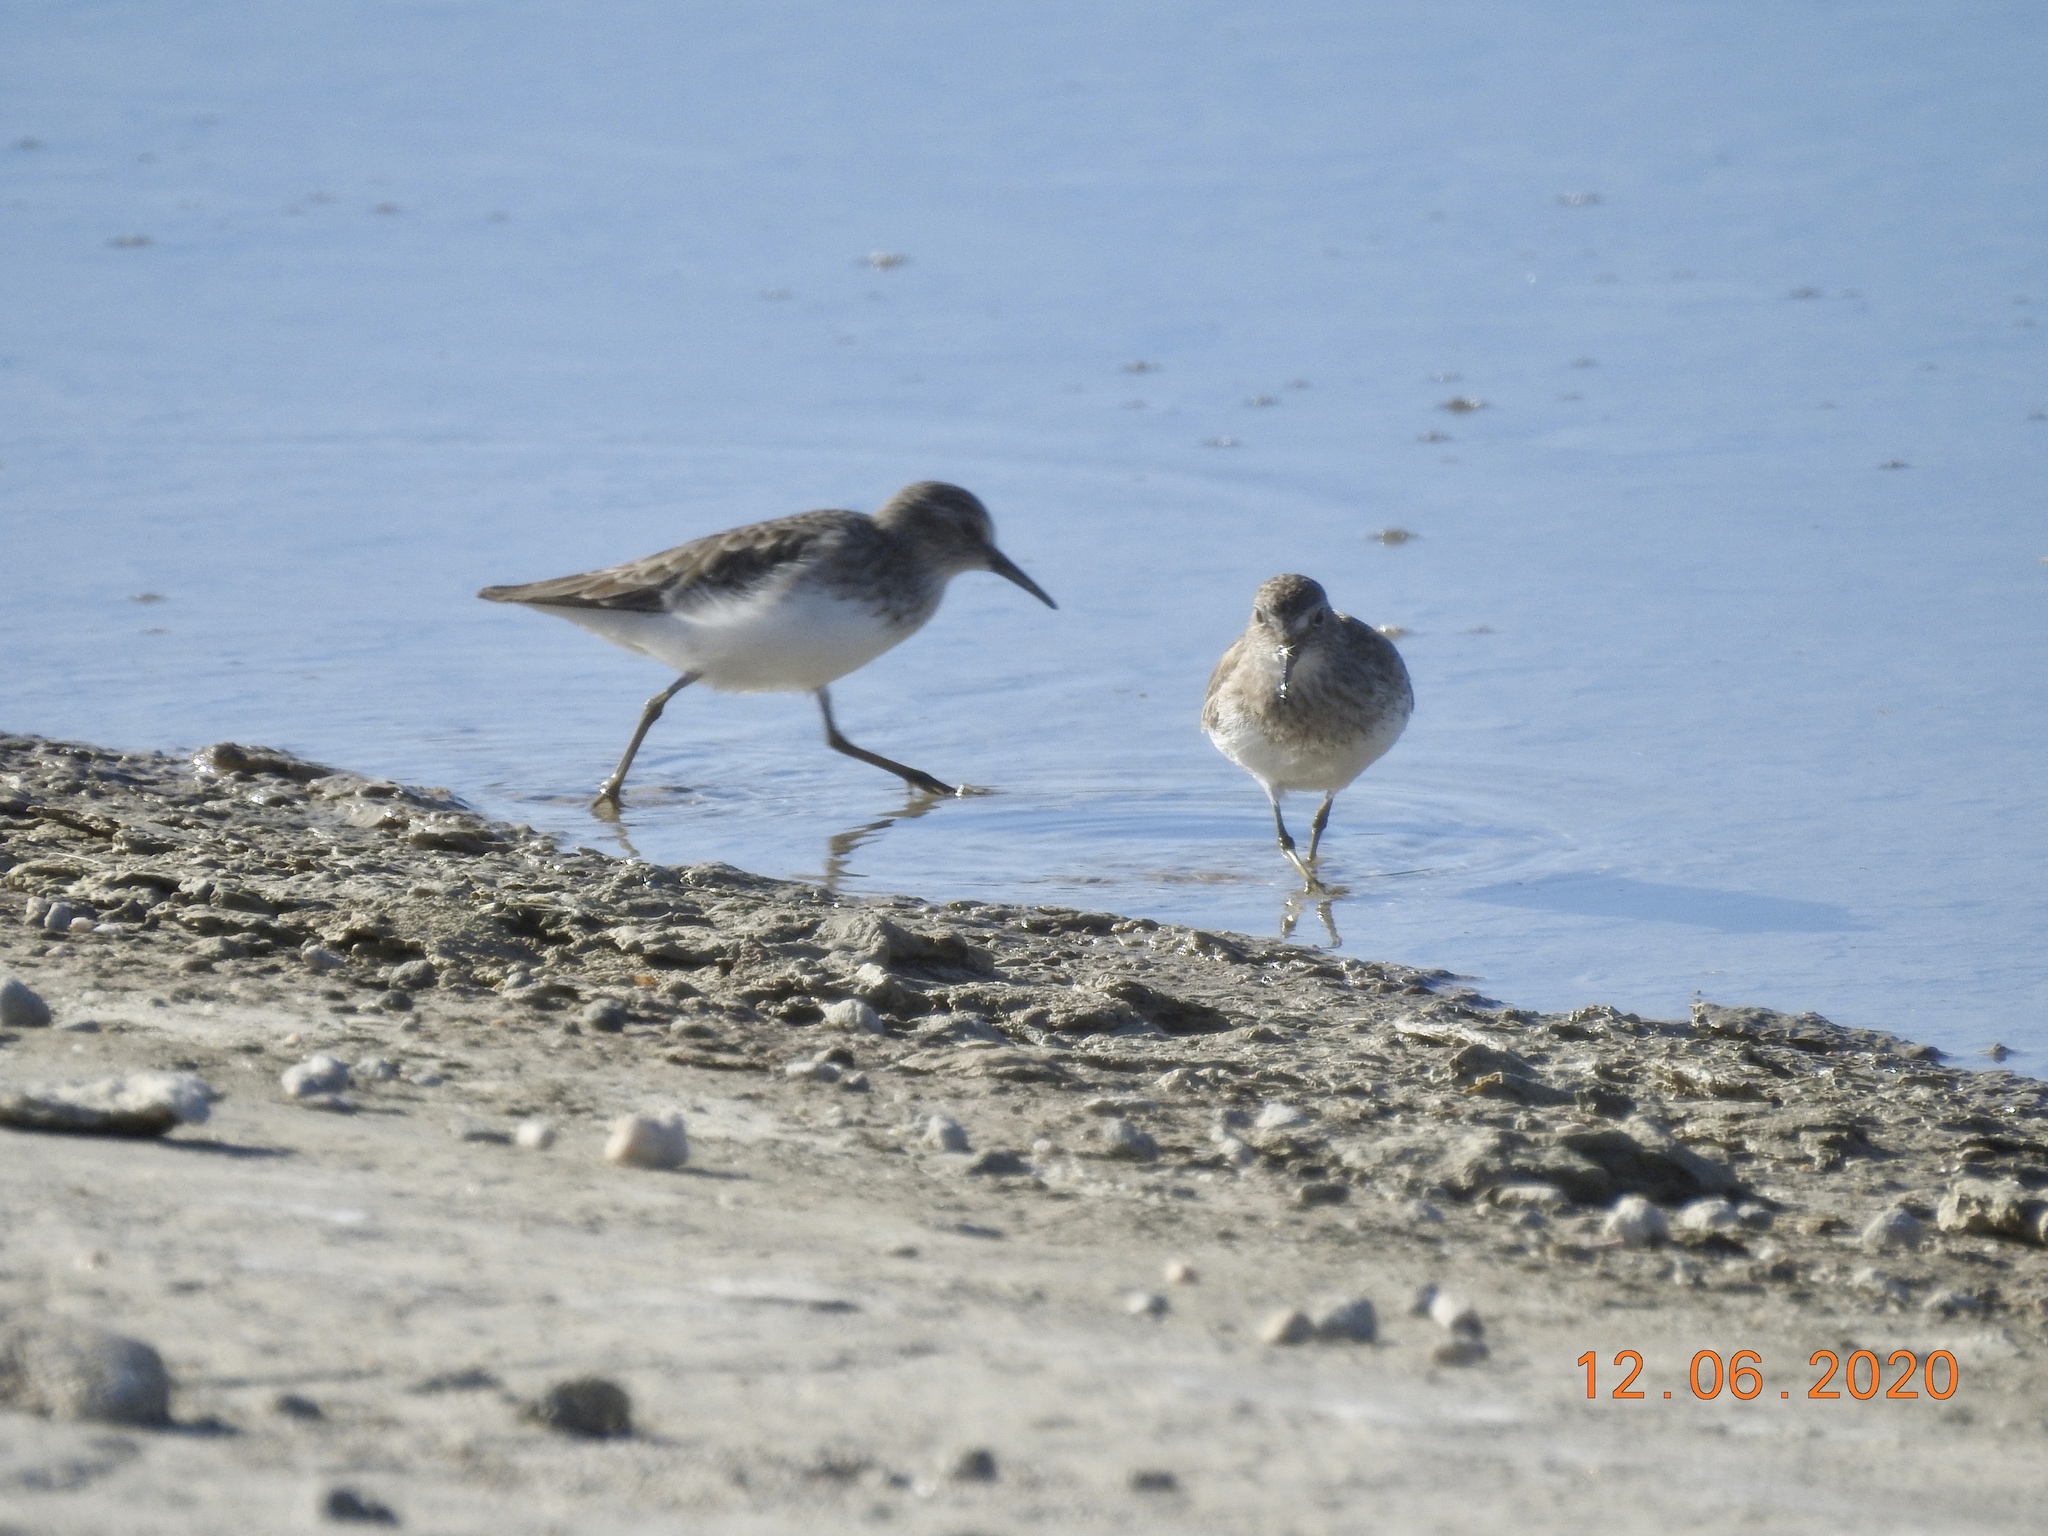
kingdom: Animalia
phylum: Chordata
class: Aves
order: Charadriiformes
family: Scolopacidae
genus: Calidris
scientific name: Calidris minutilla
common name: Least sandpiper
